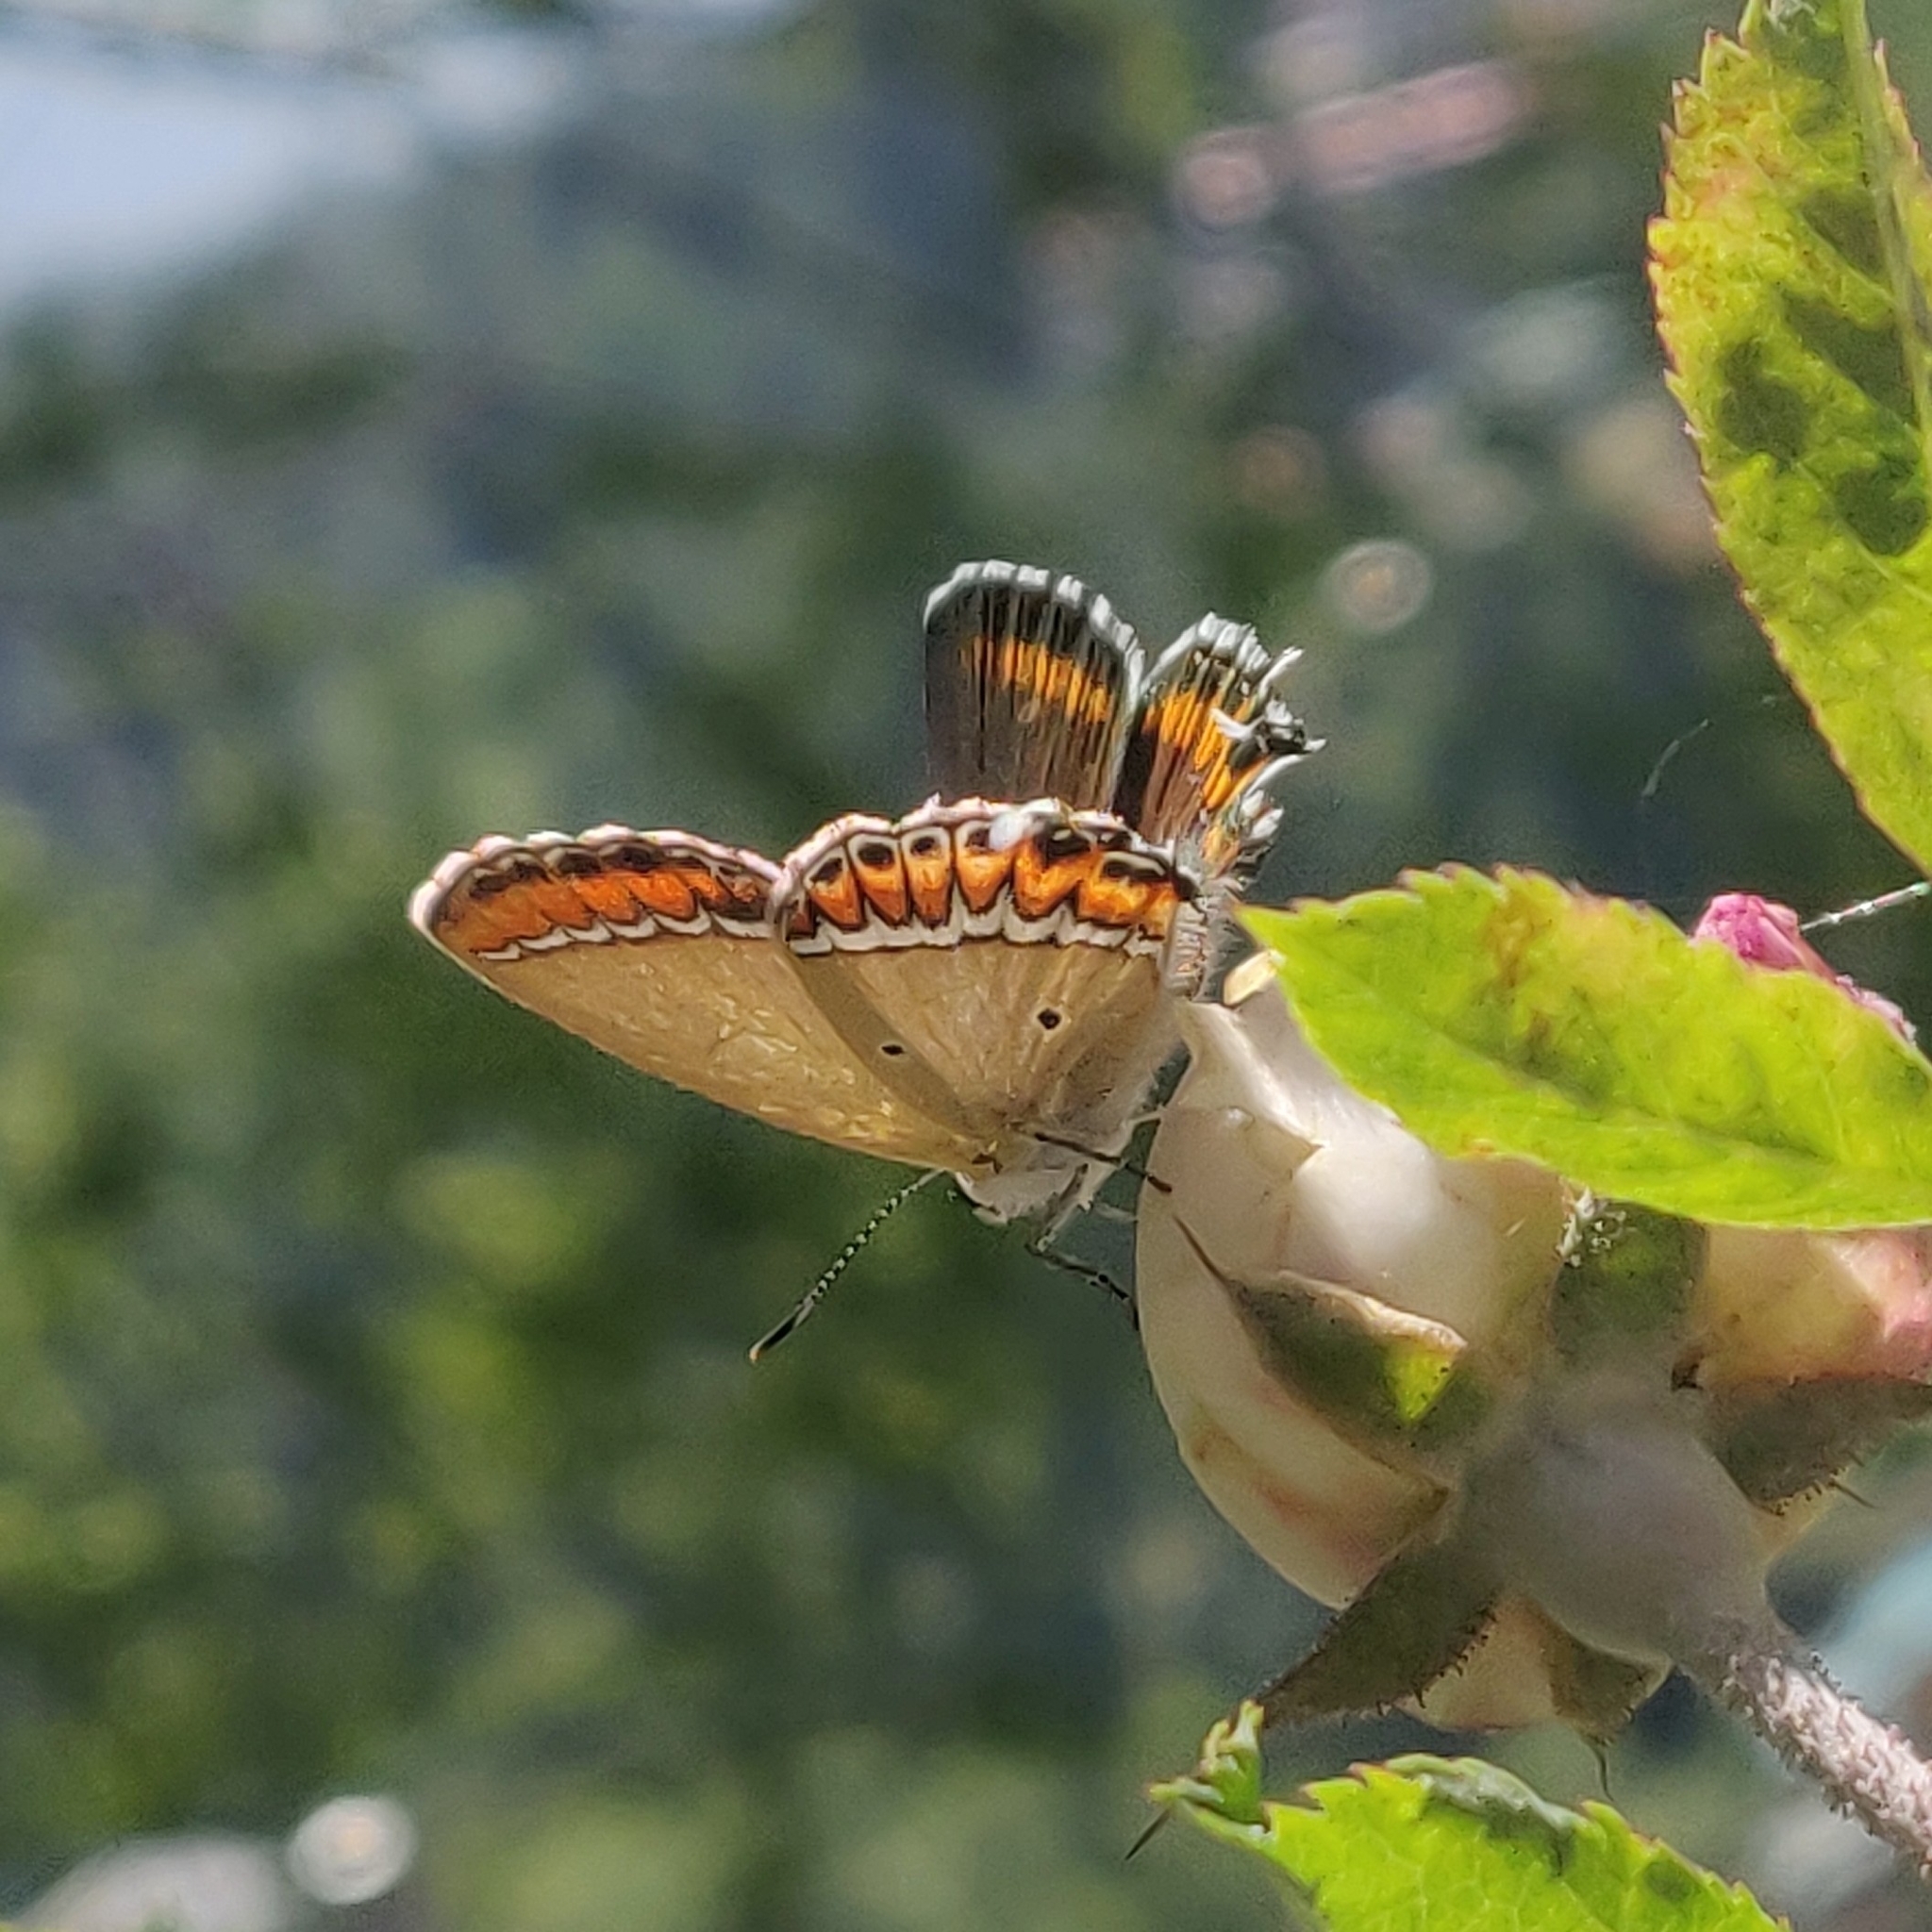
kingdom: Animalia
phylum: Arthropoda
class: Insecta
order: Lepidoptera
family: Lycaenidae
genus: Heliophorus
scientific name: Heliophorus sena
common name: Sorrel sapphire
